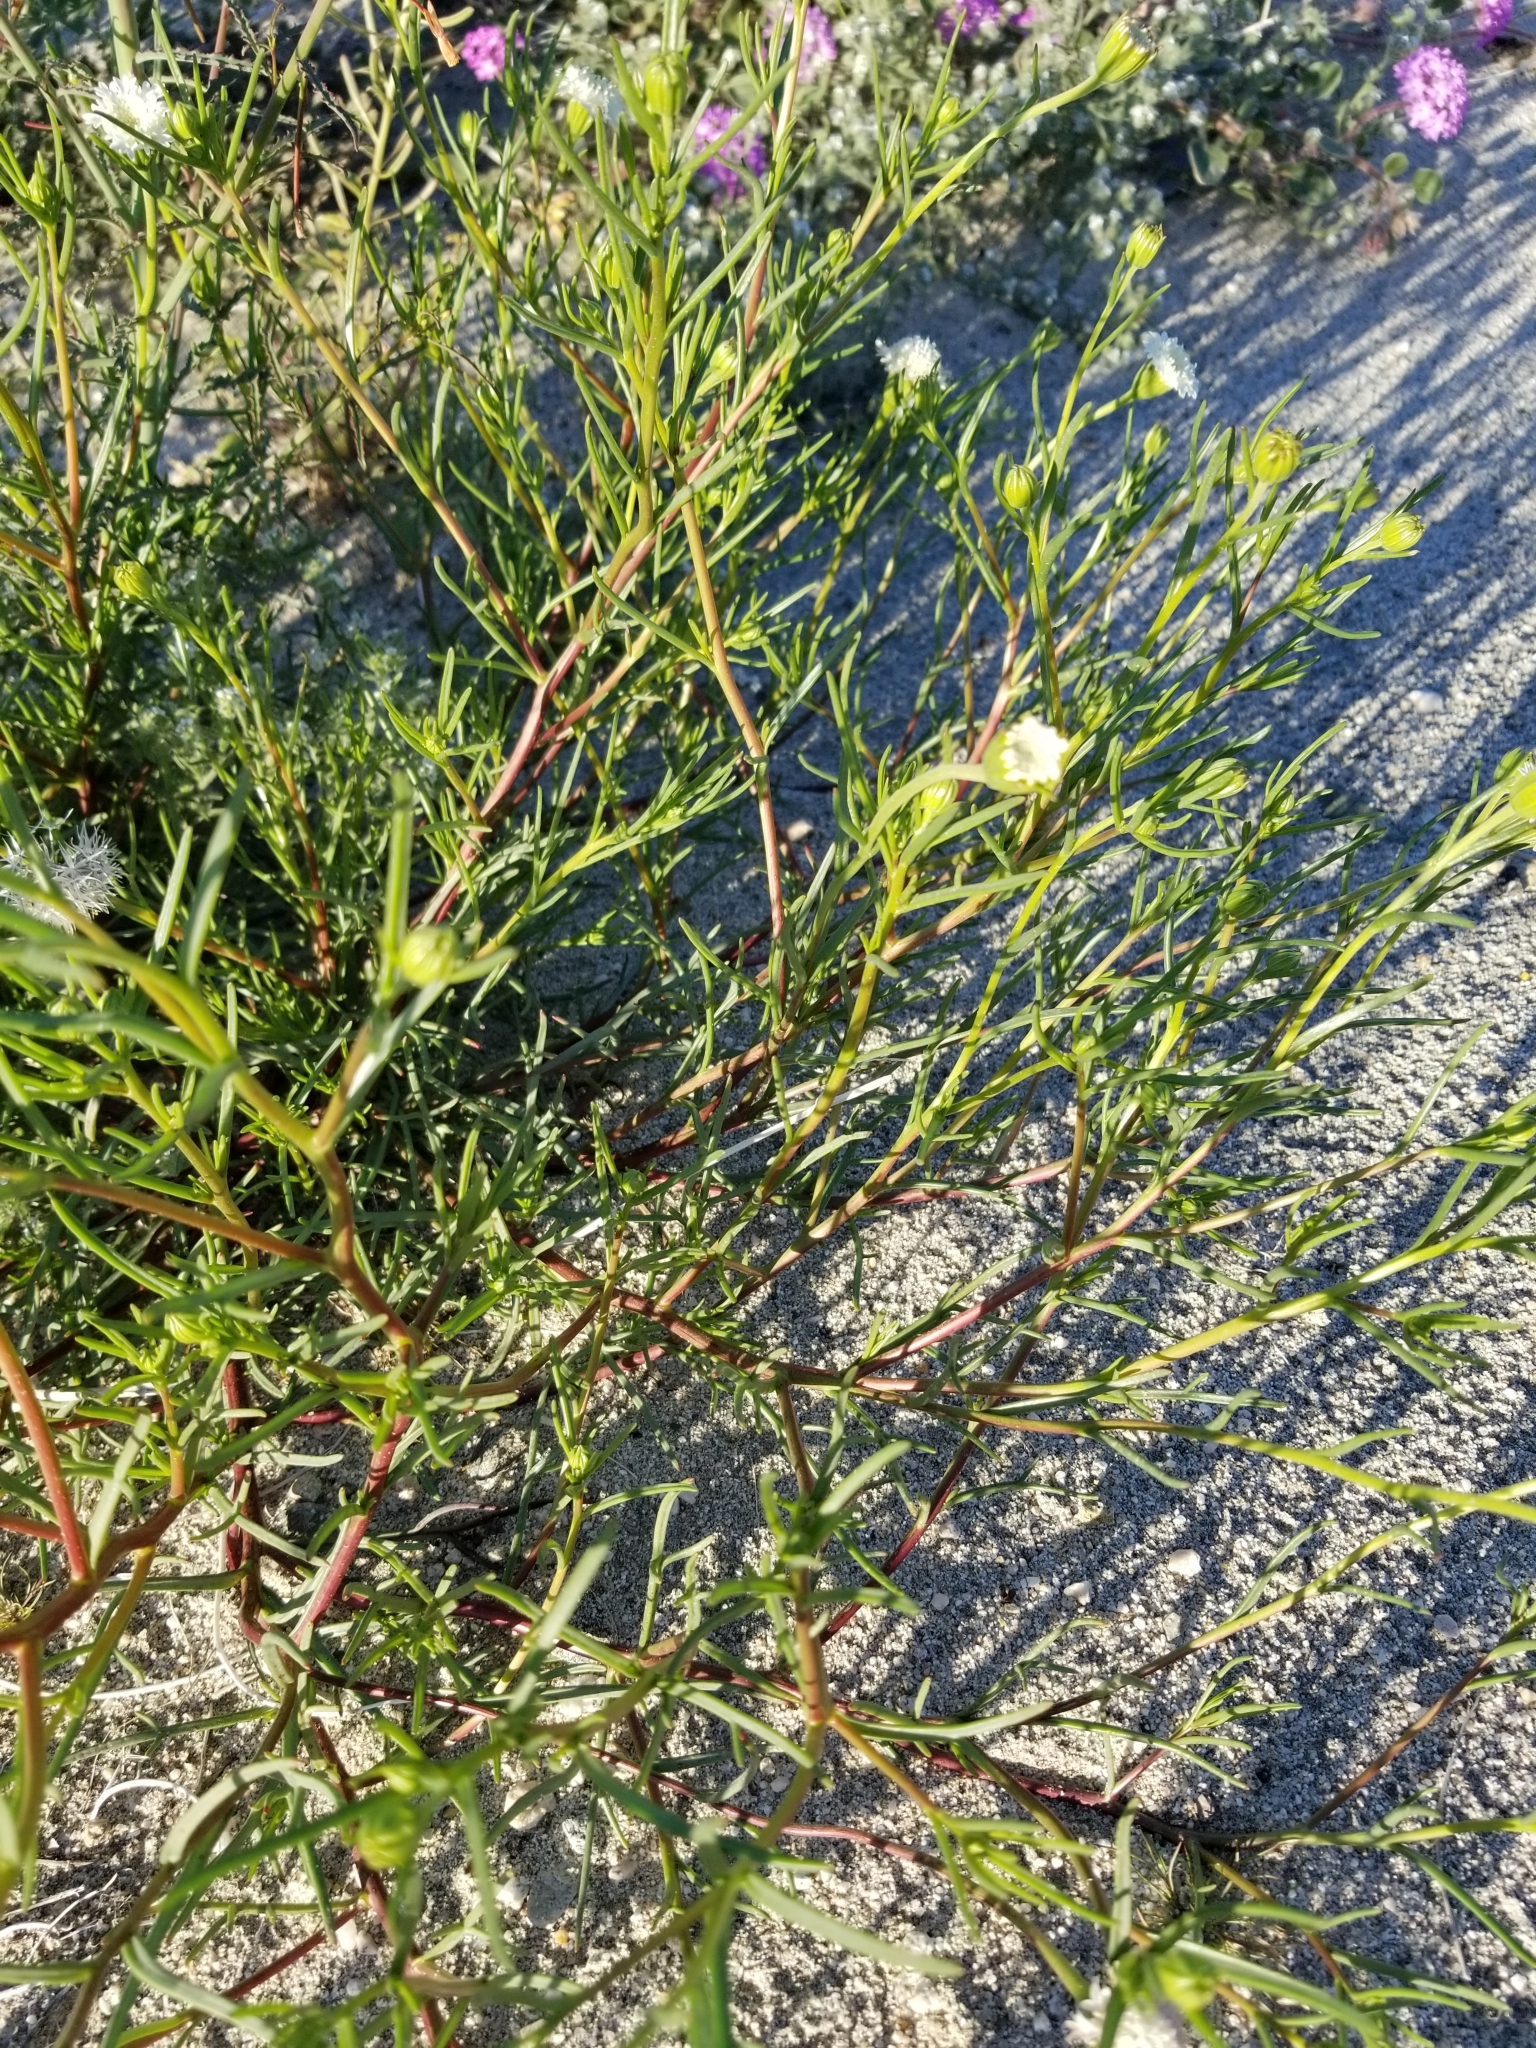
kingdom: Plantae
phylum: Tracheophyta
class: Magnoliopsida
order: Asterales
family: Asteraceae
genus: Chaenactis
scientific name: Chaenactis fremontii
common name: Fremont pincushion
